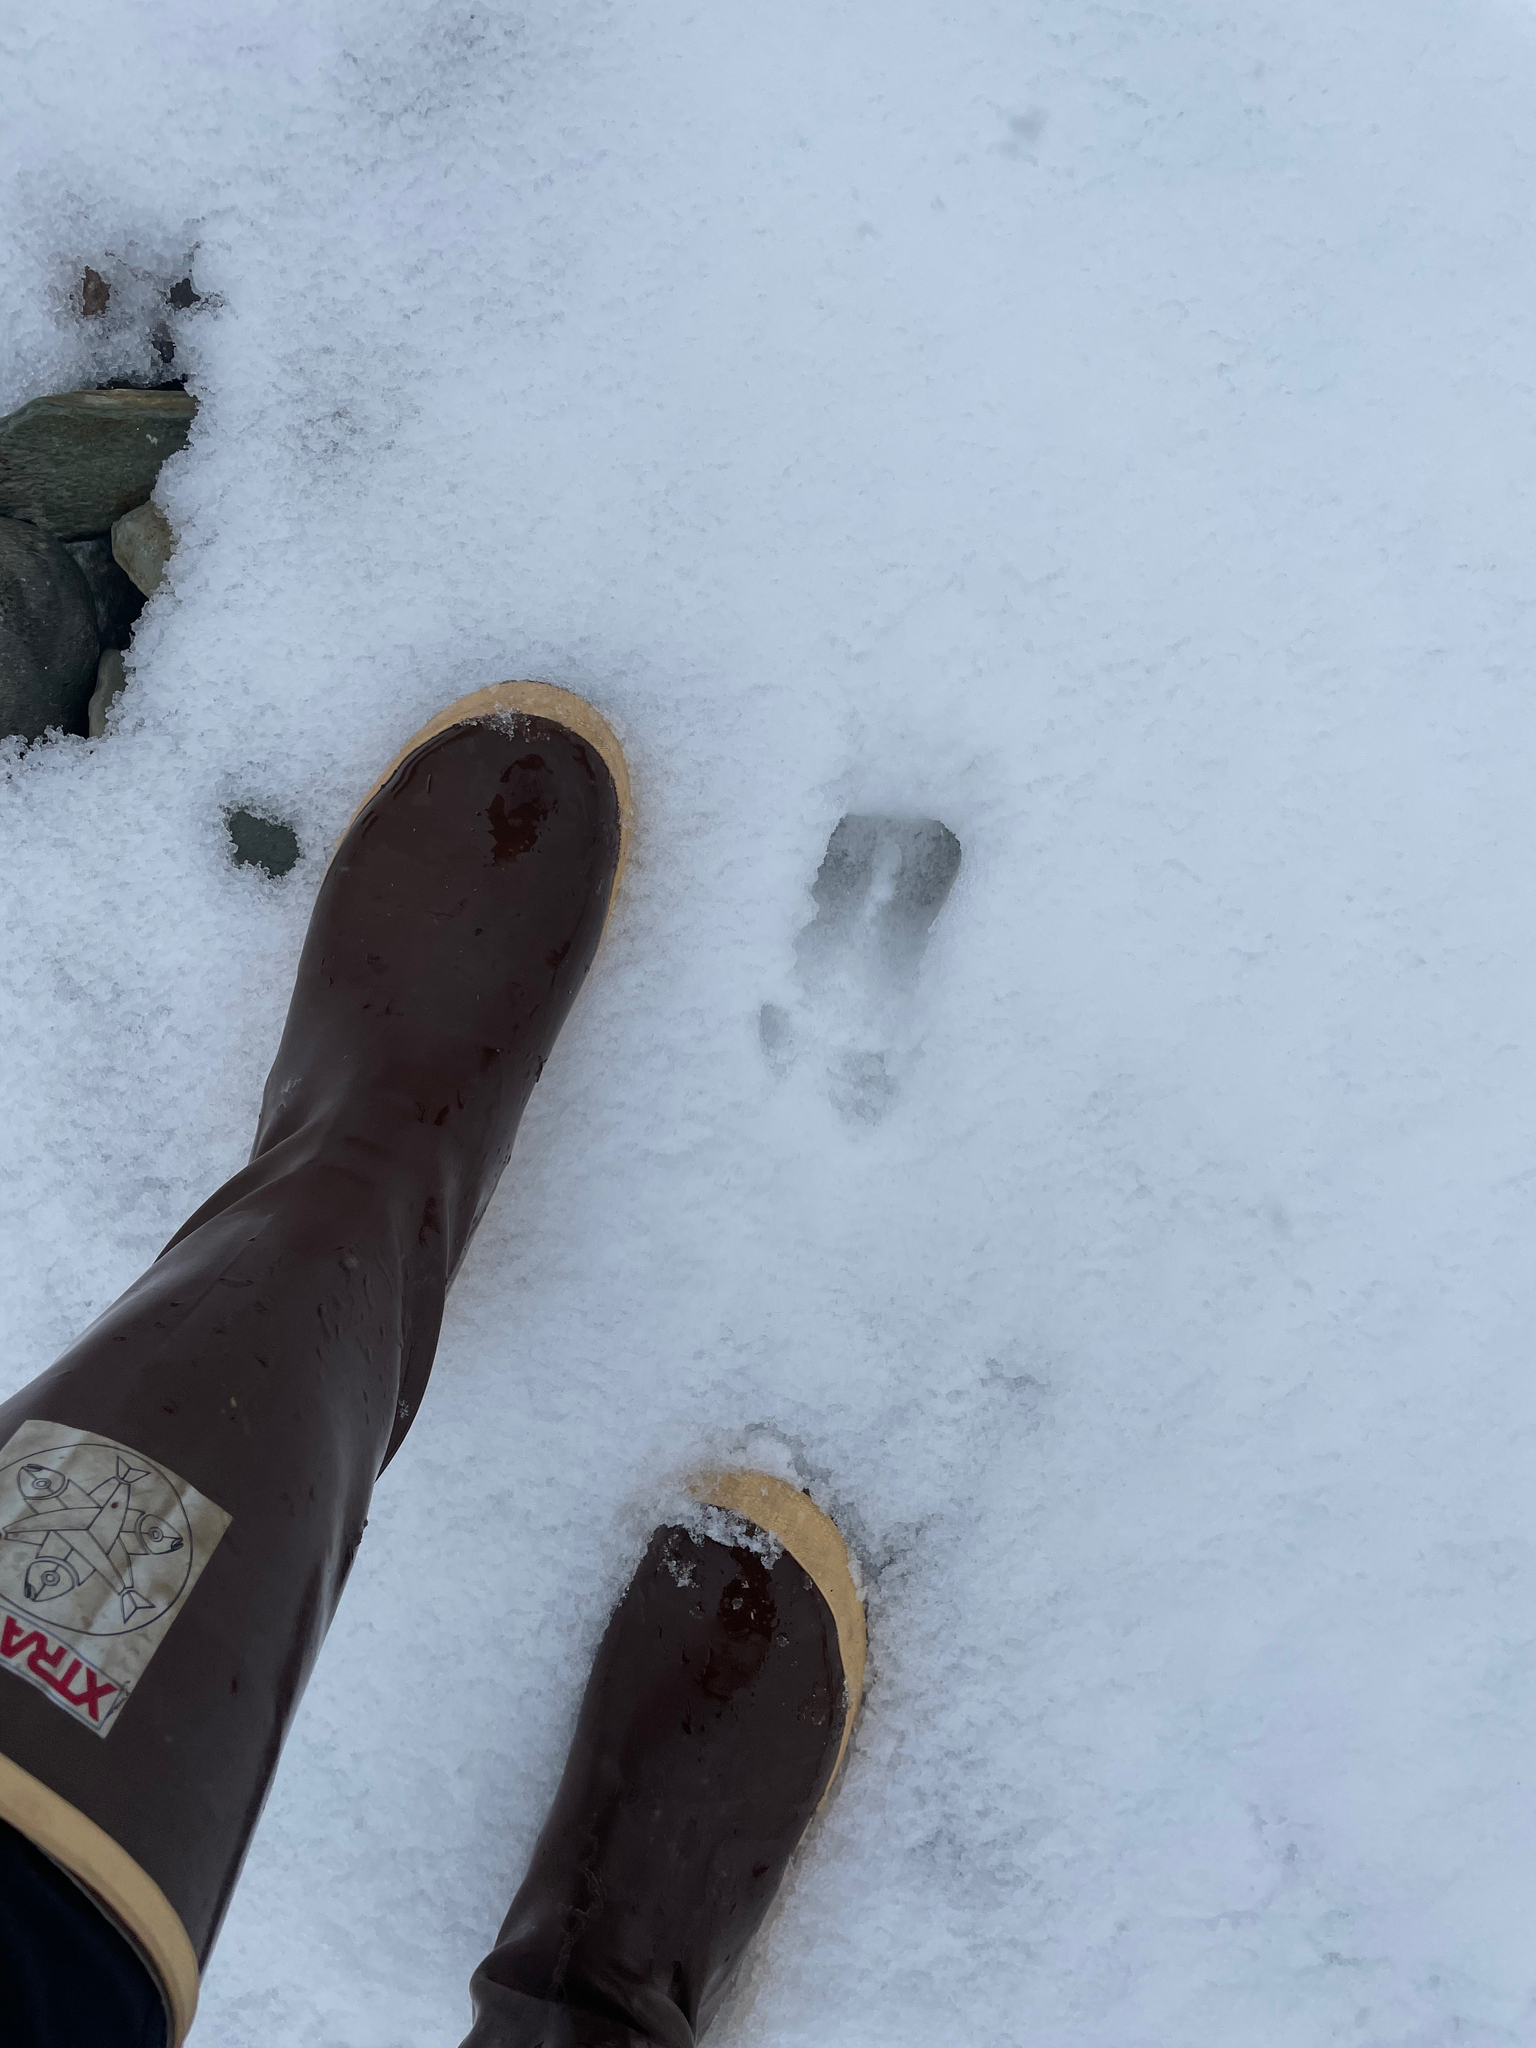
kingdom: Animalia
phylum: Chordata
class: Mammalia
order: Artiodactyla
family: Cervidae
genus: Odocoileus
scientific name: Odocoileus virginianus
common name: White-tailed deer
